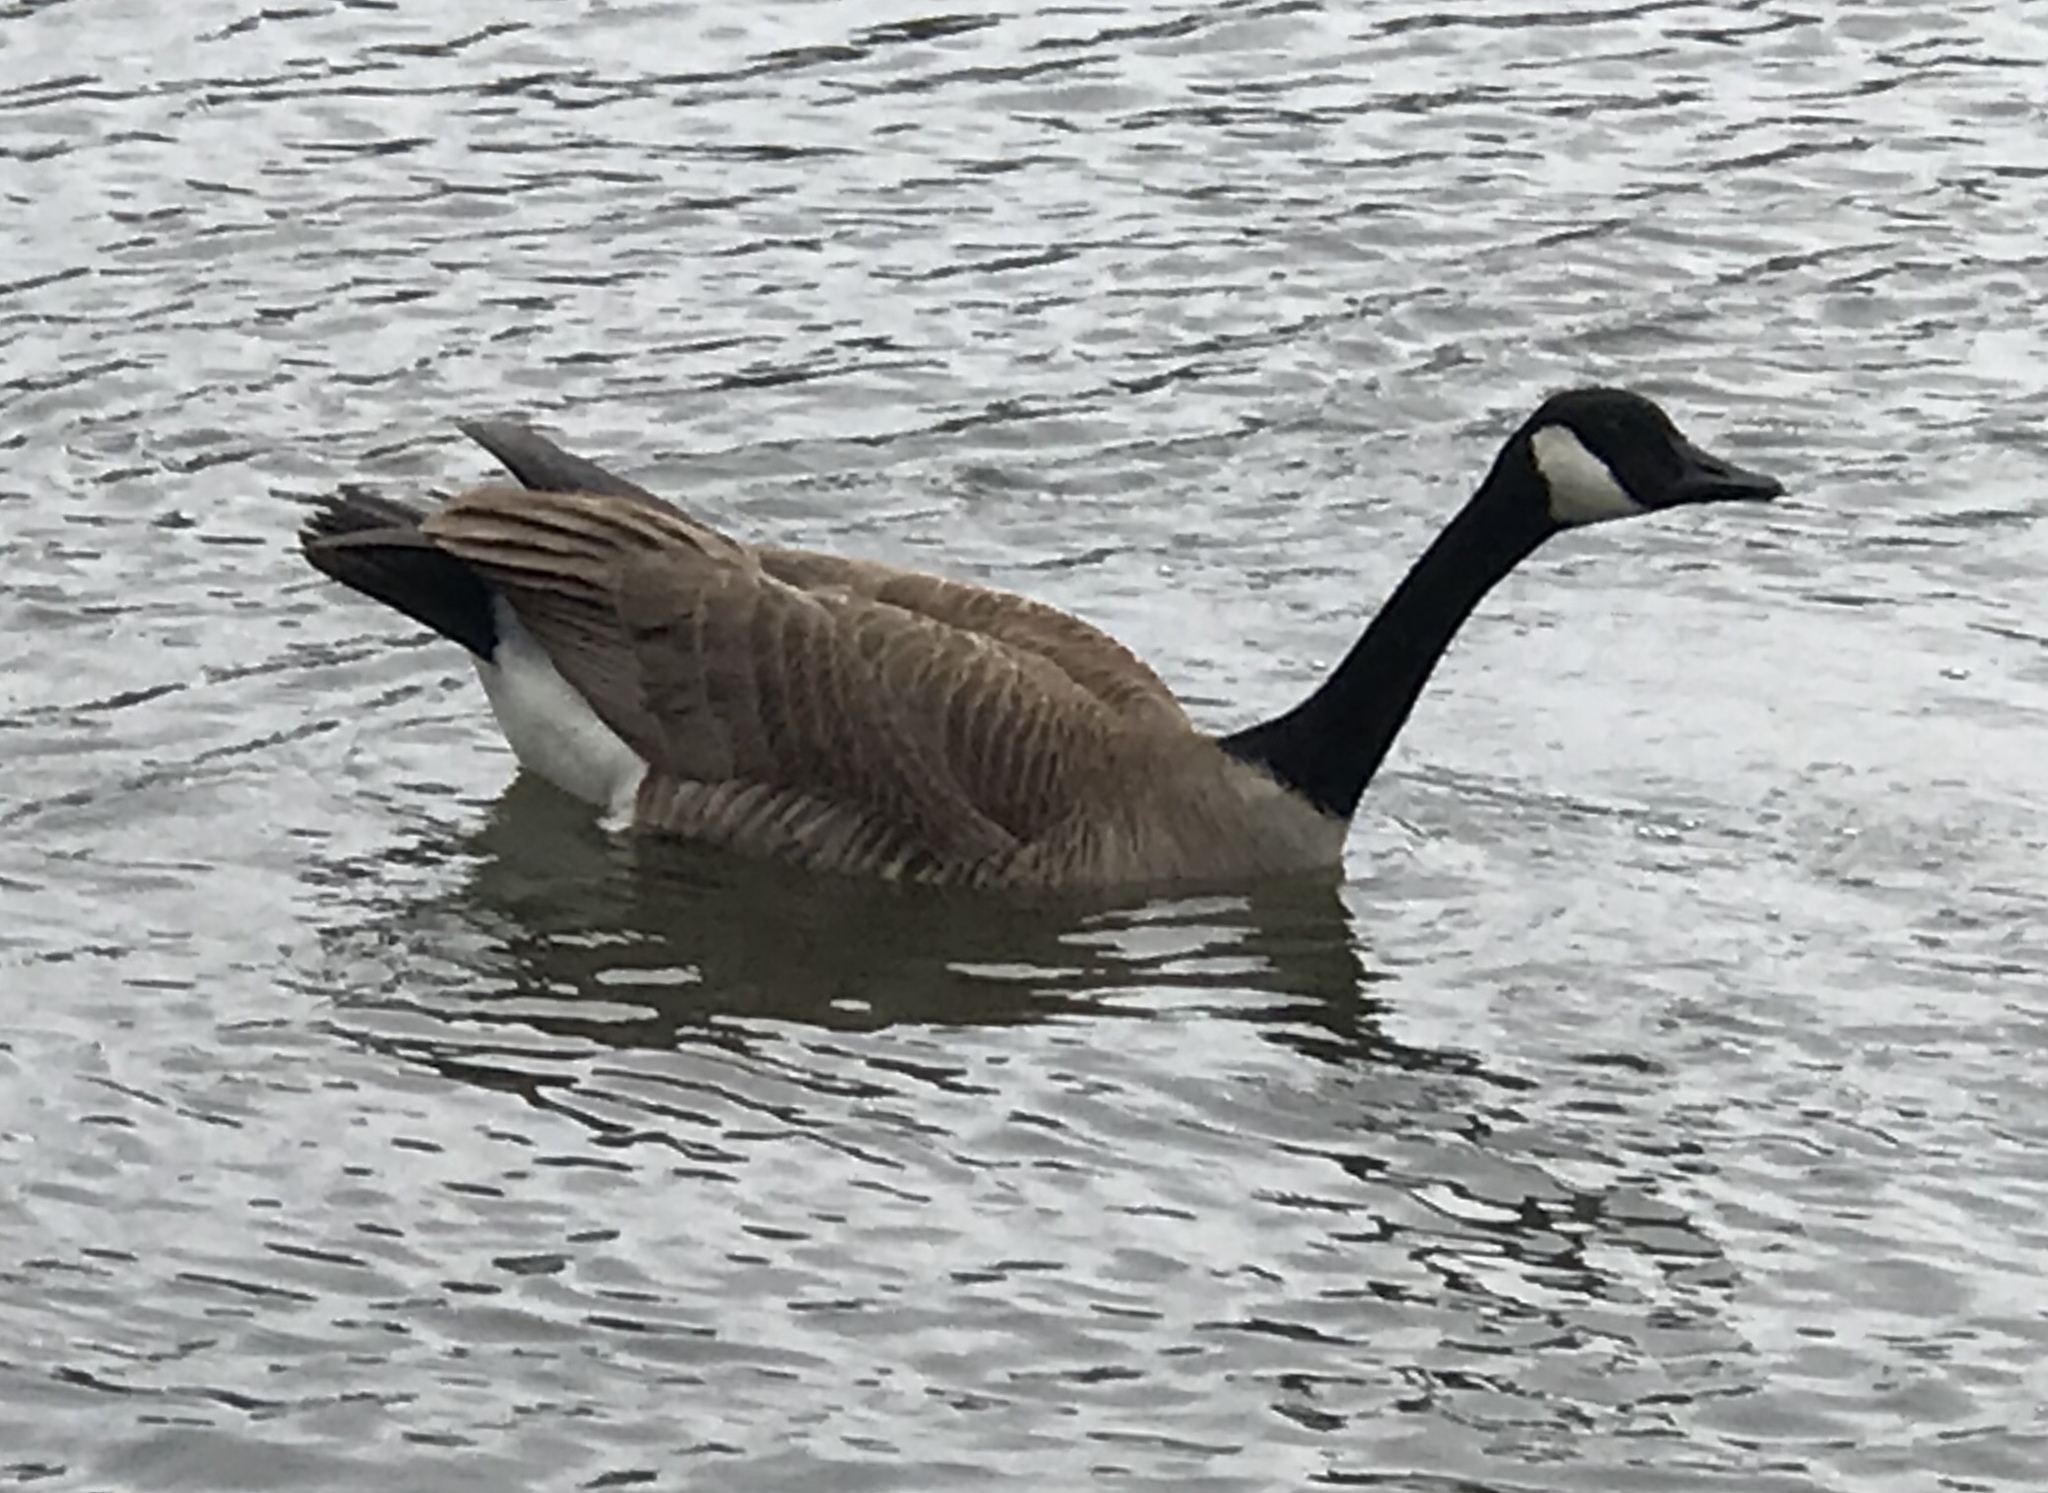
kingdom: Animalia
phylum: Chordata
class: Aves
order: Anseriformes
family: Anatidae
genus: Branta
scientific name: Branta canadensis
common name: Canada goose
